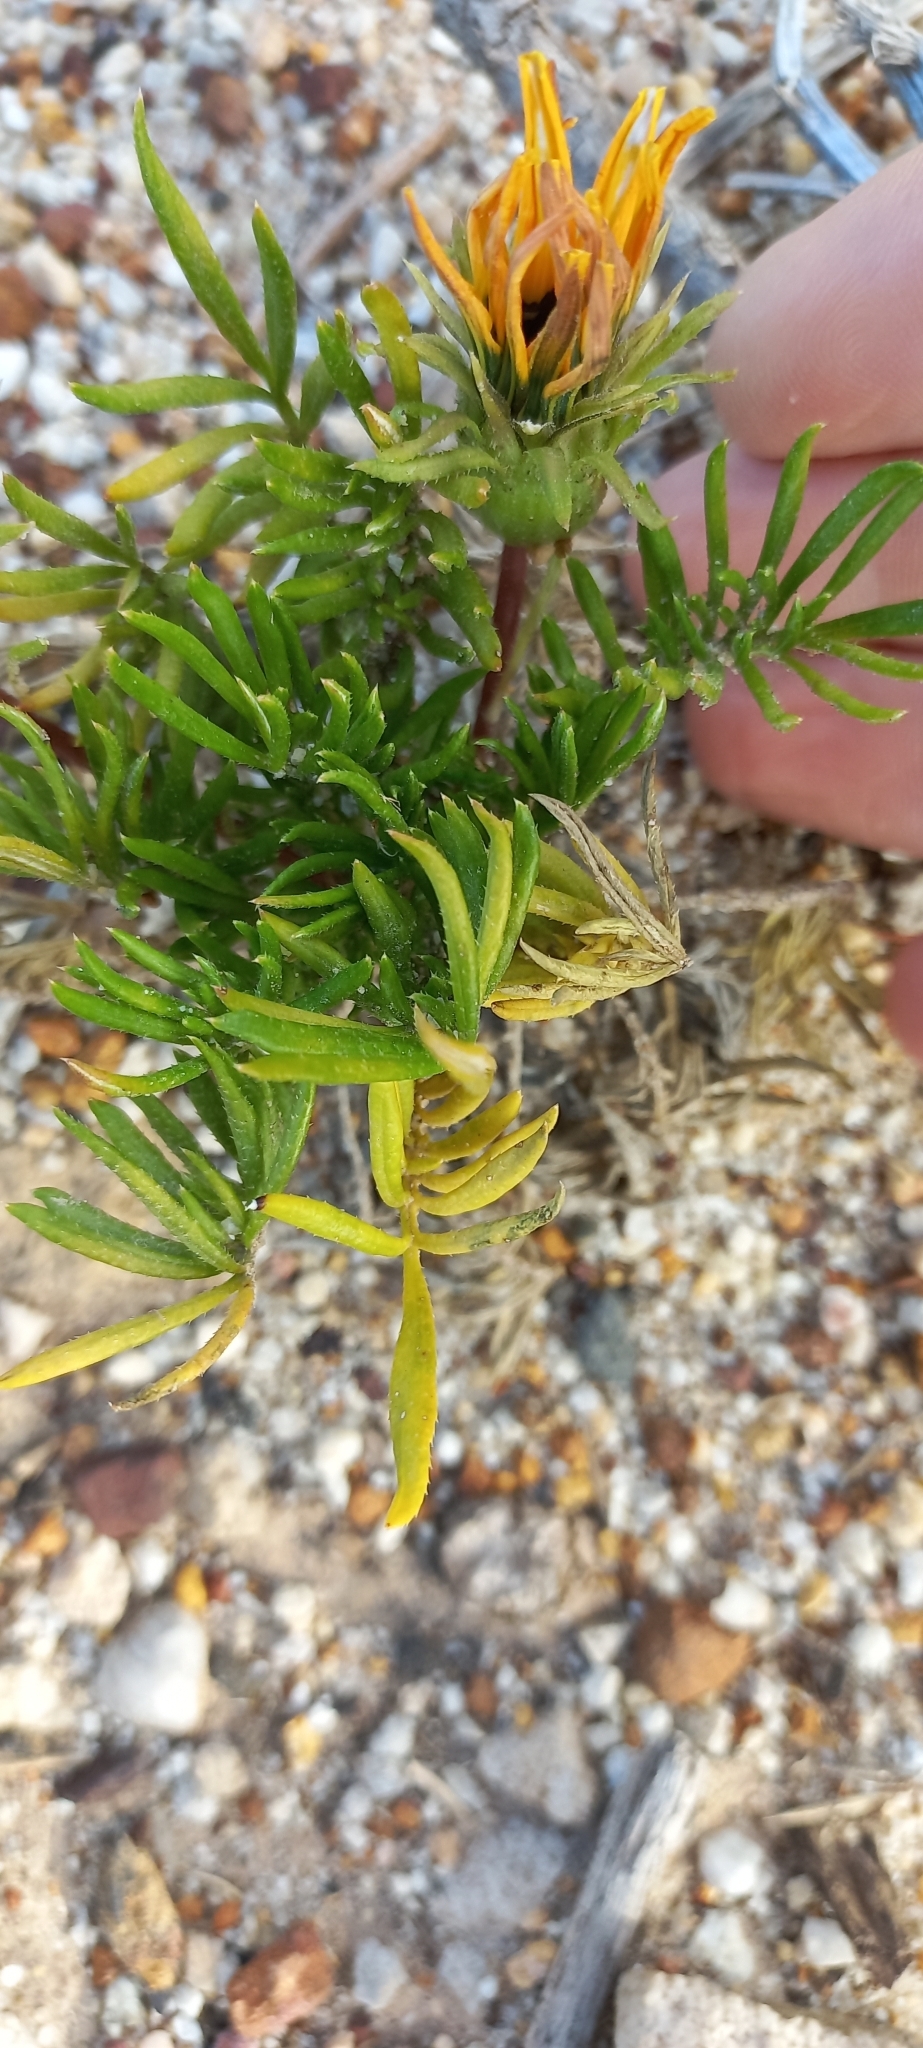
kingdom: Plantae
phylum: Tracheophyta
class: Magnoliopsida
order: Asterales
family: Asteraceae
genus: Gazania
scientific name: Gazania pectinata
